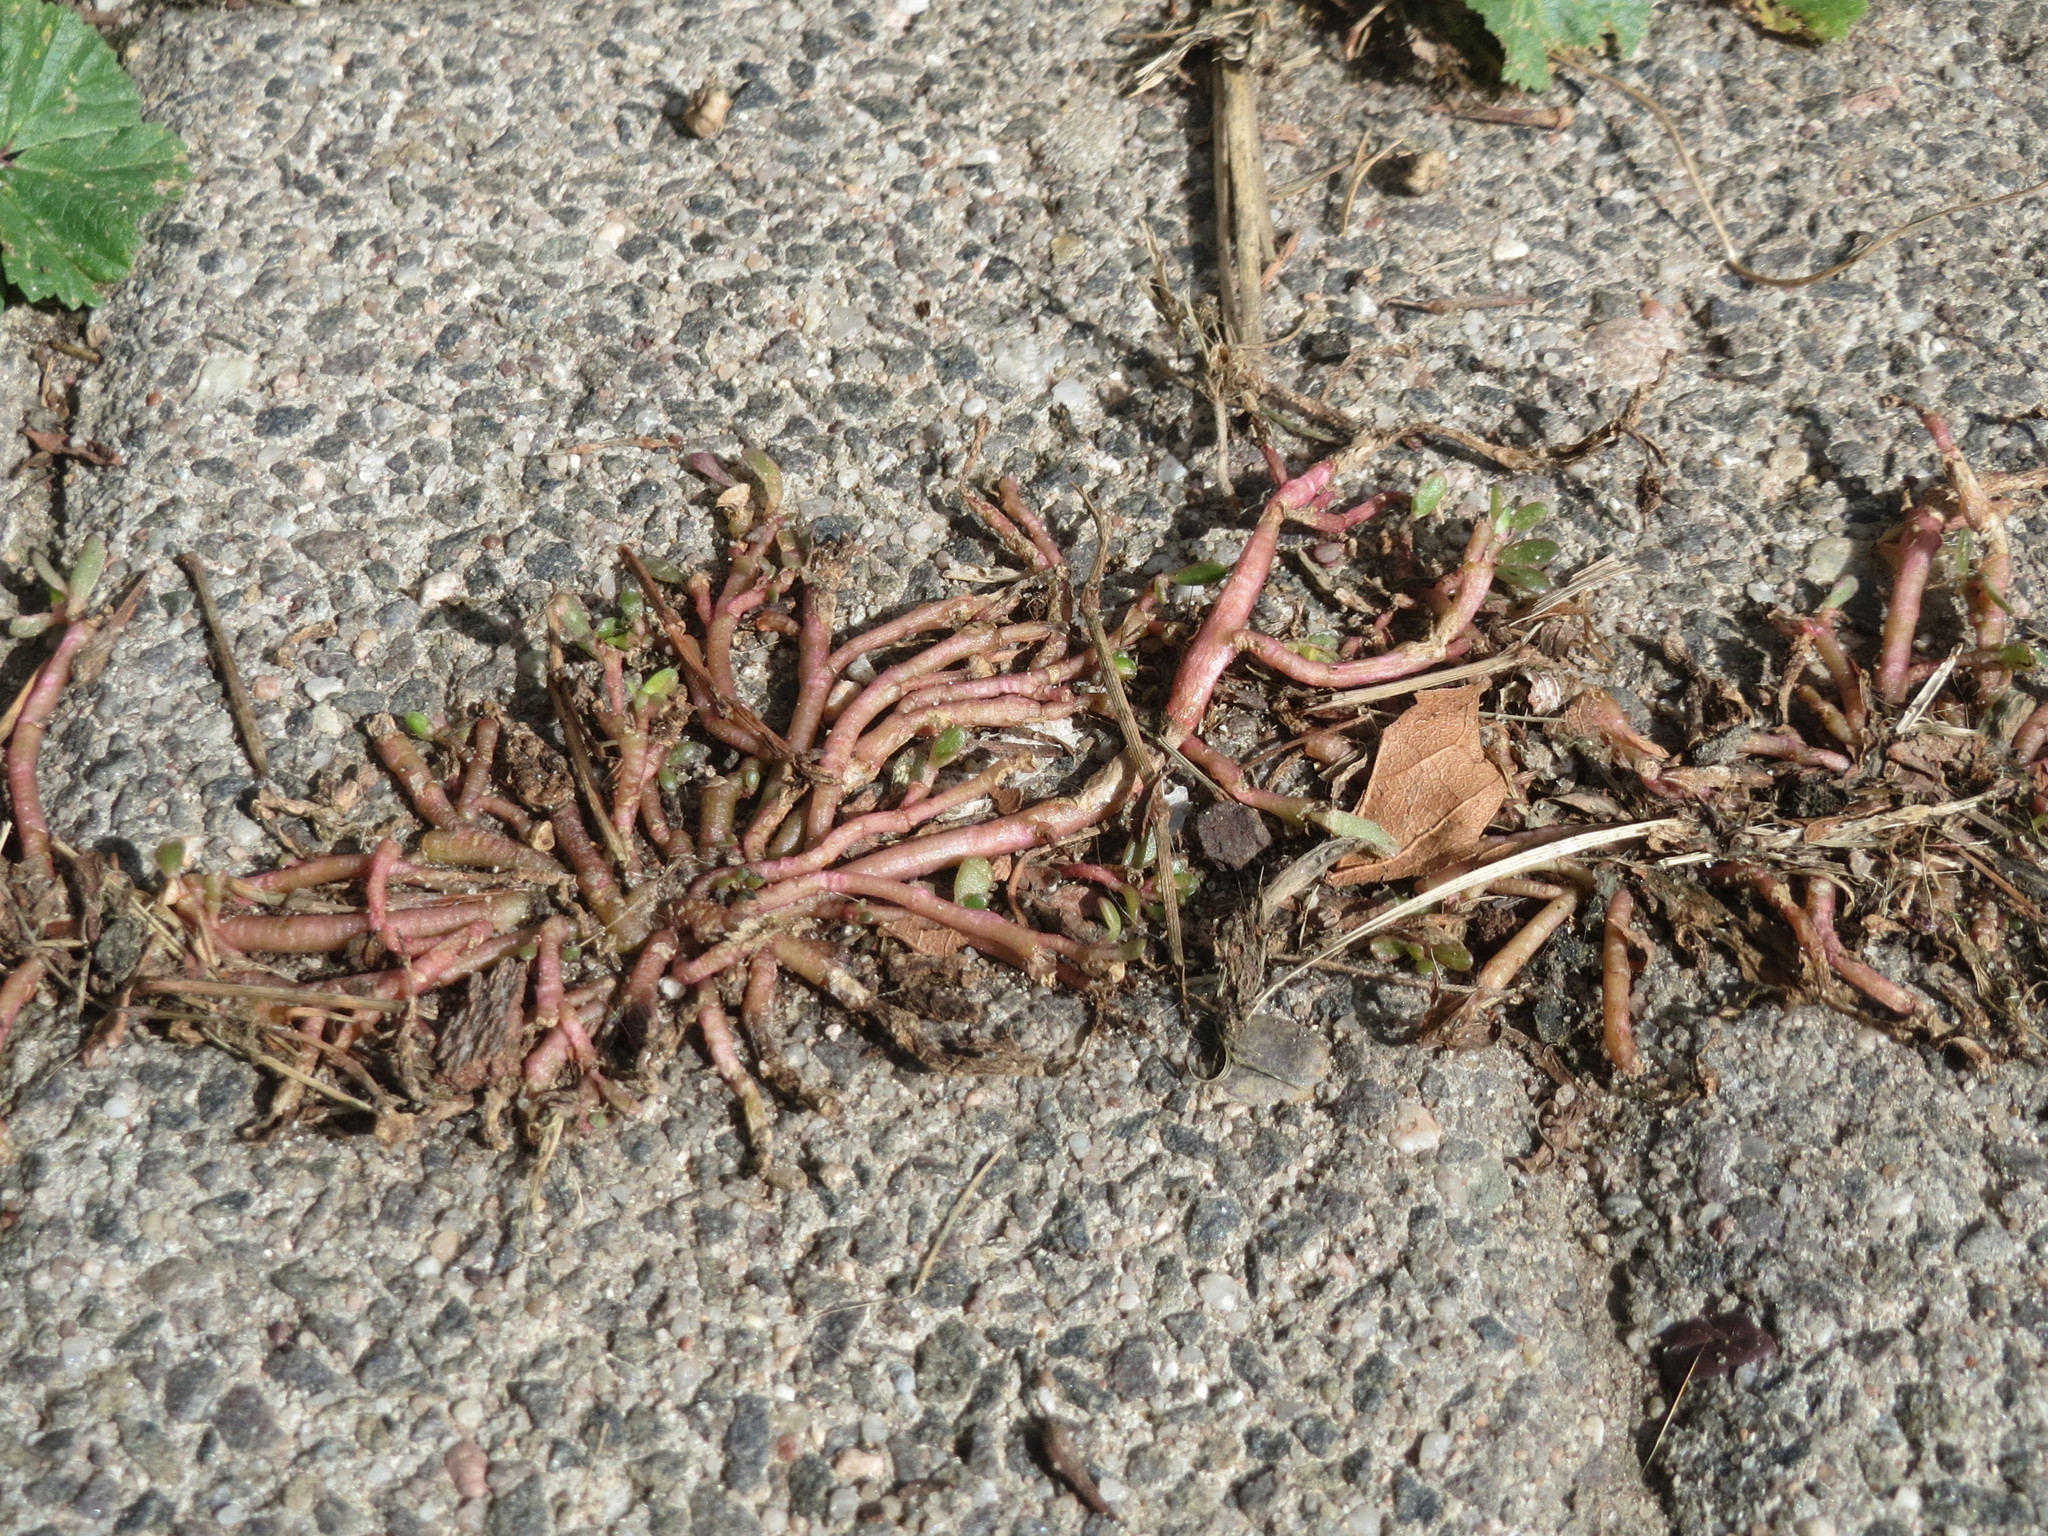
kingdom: Plantae
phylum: Tracheophyta
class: Magnoliopsida
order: Caryophyllales
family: Portulacaceae
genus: Portulaca
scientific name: Portulaca oleracea
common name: Common purslane
